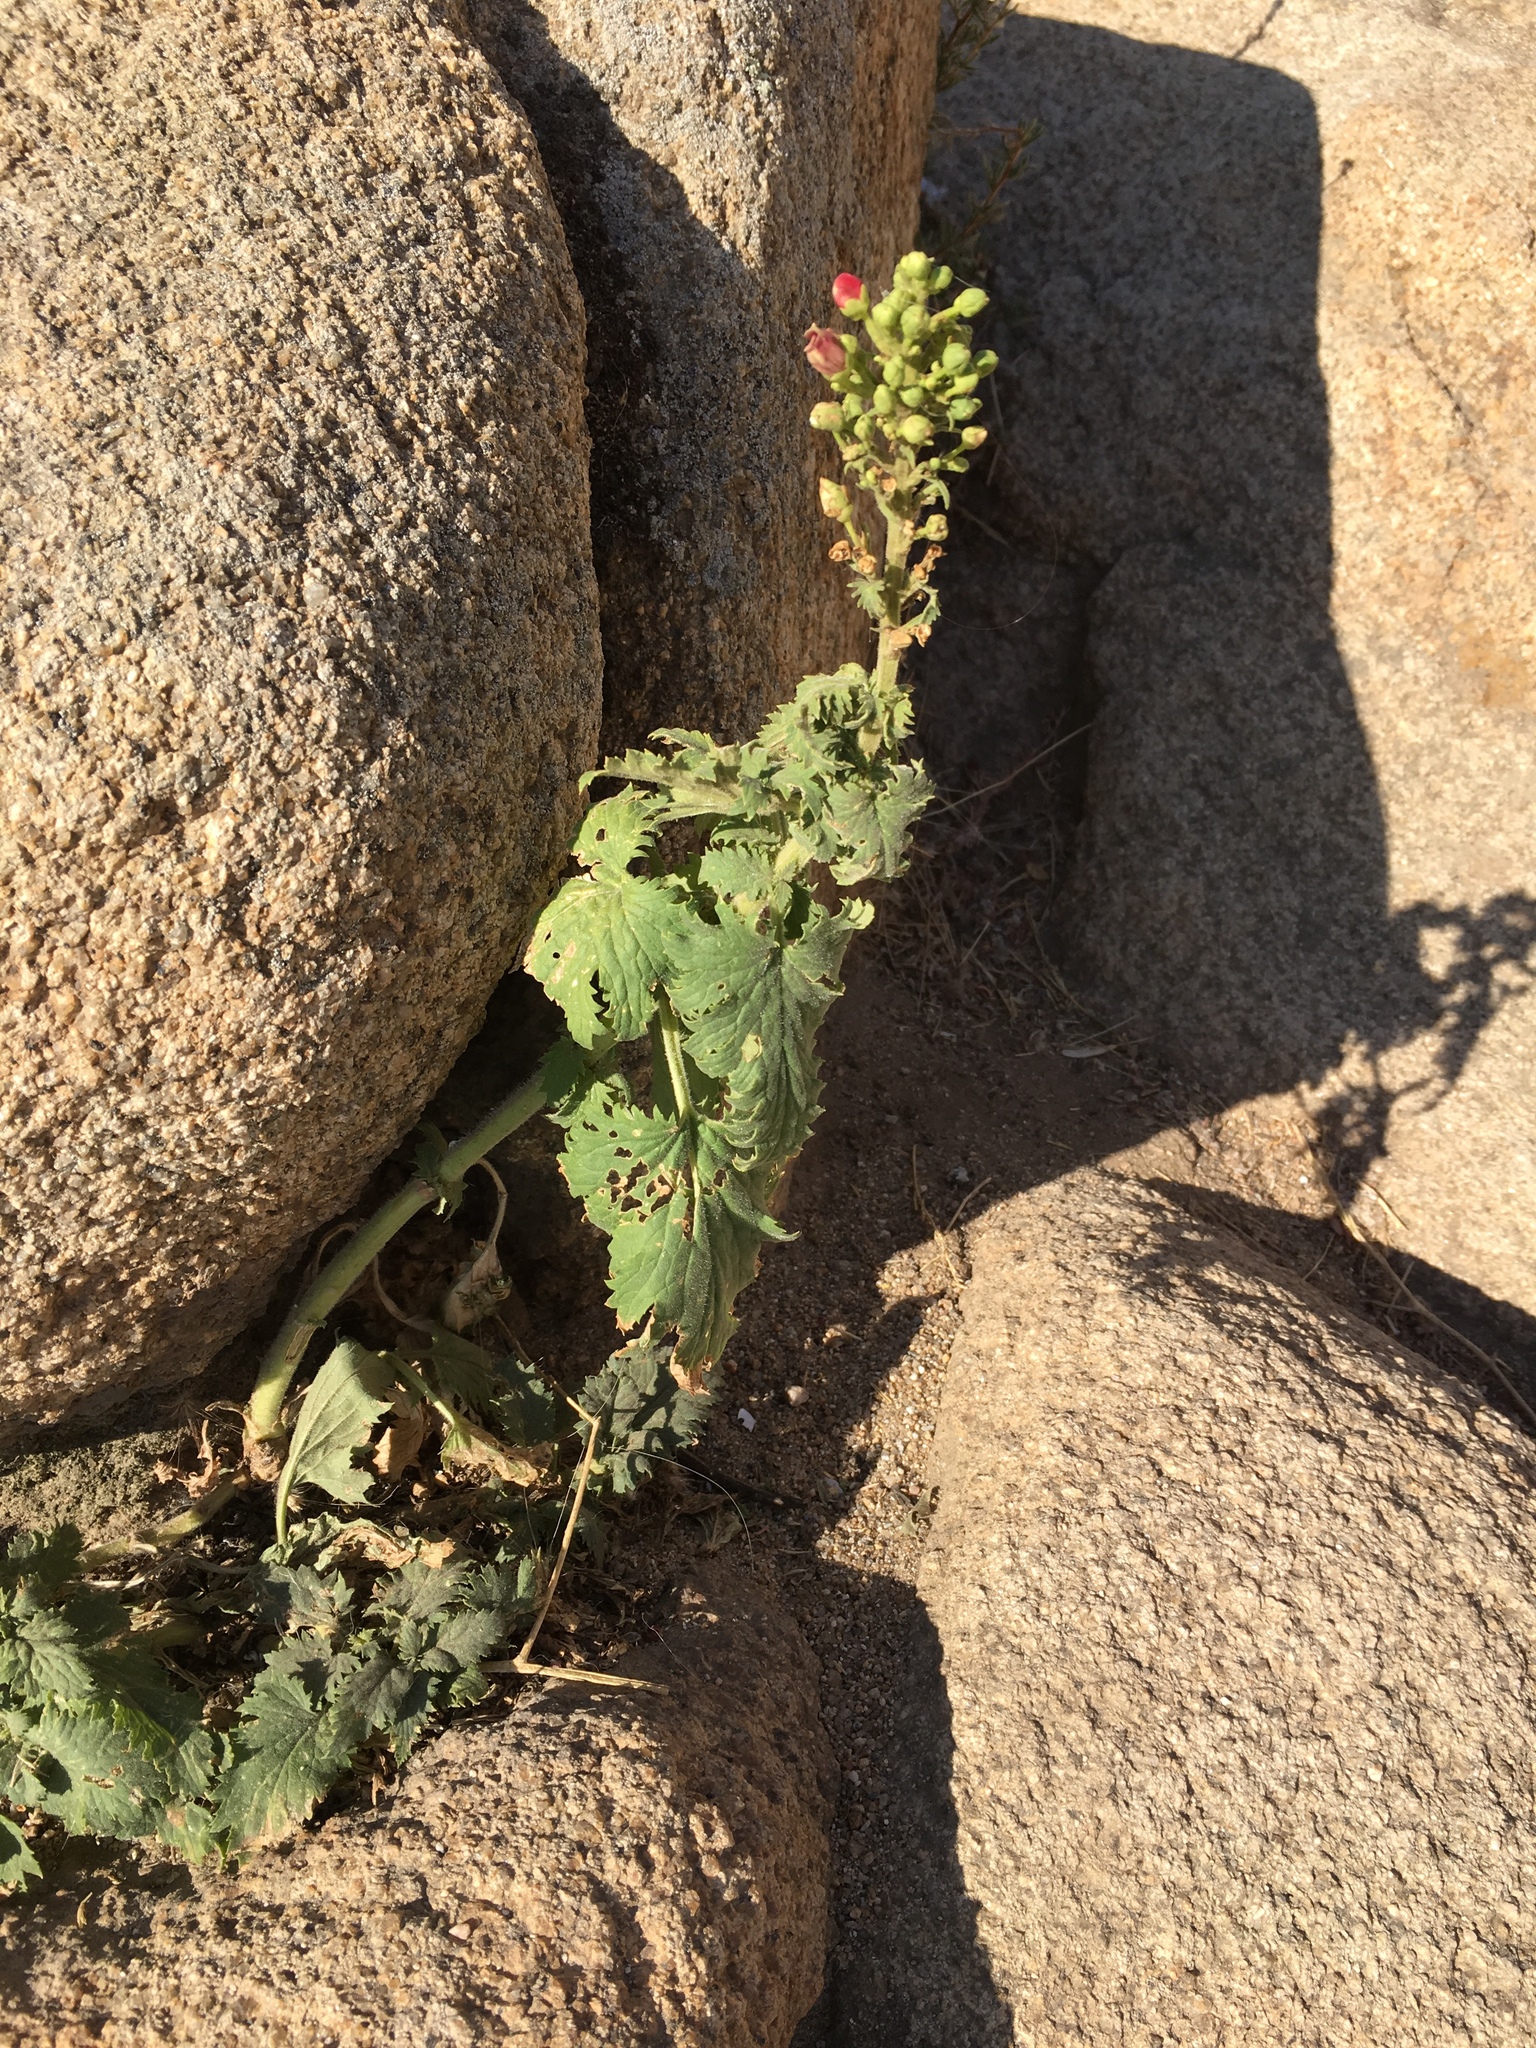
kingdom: Plantae
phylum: Tracheophyta
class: Magnoliopsida
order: Lamiales
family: Scrophulariaceae
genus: Scrophularia
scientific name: Scrophularia californica
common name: California figwort
